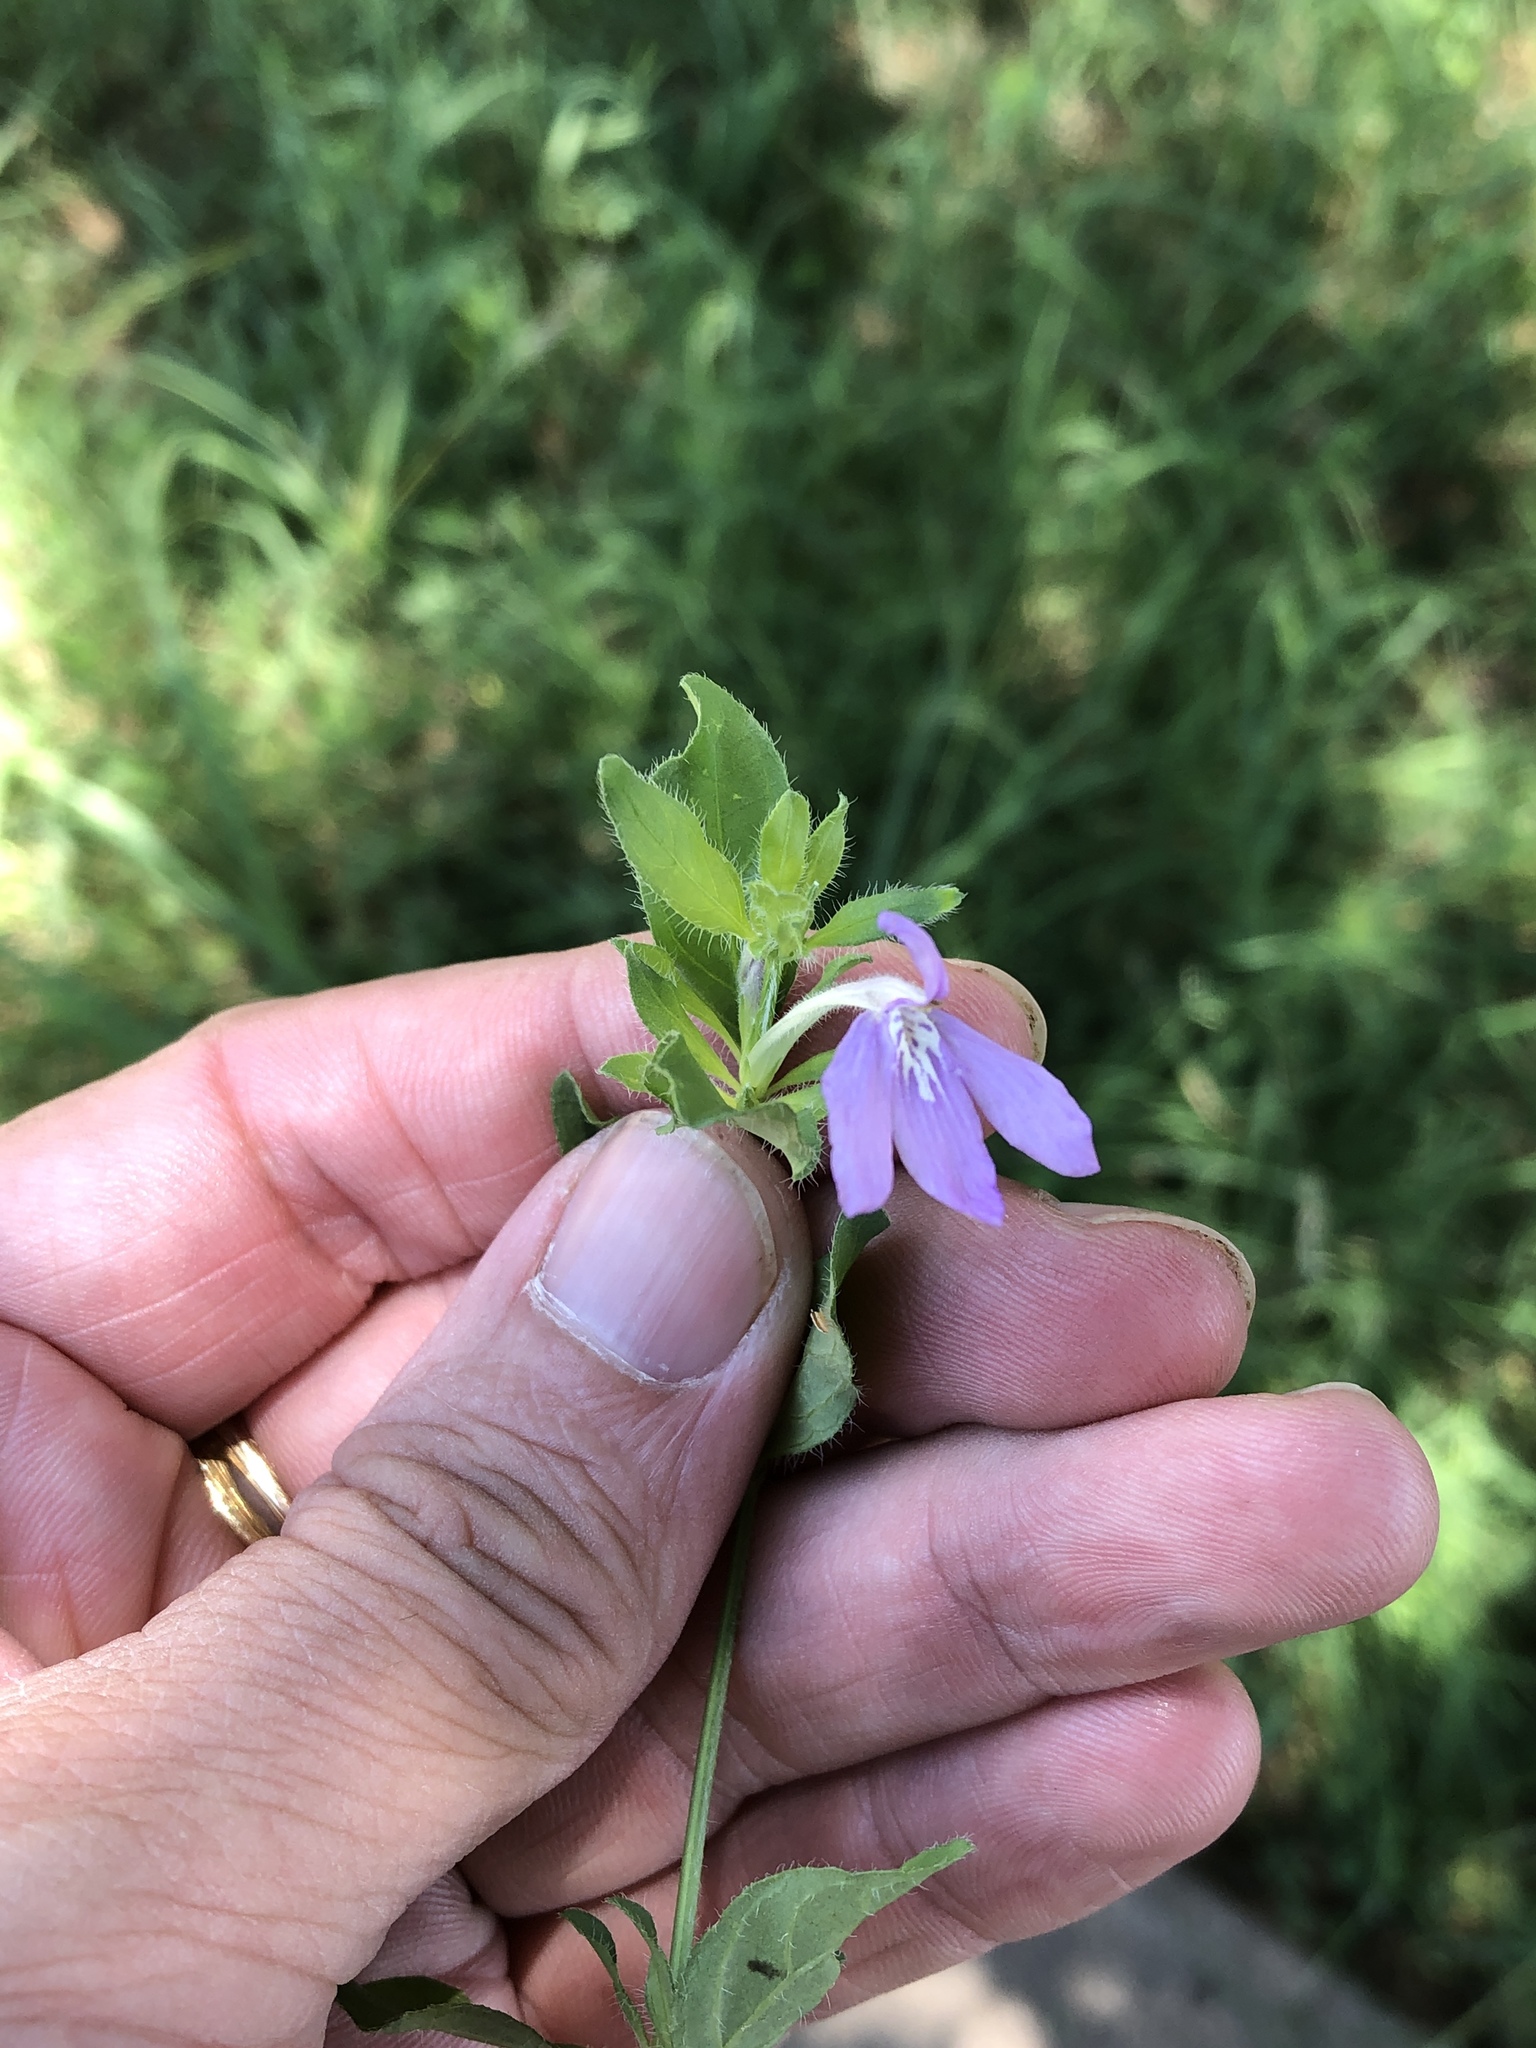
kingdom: Plantae
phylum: Tracheophyta
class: Magnoliopsida
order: Lamiales
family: Acanthaceae
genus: Justicia
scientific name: Justicia pilosella
